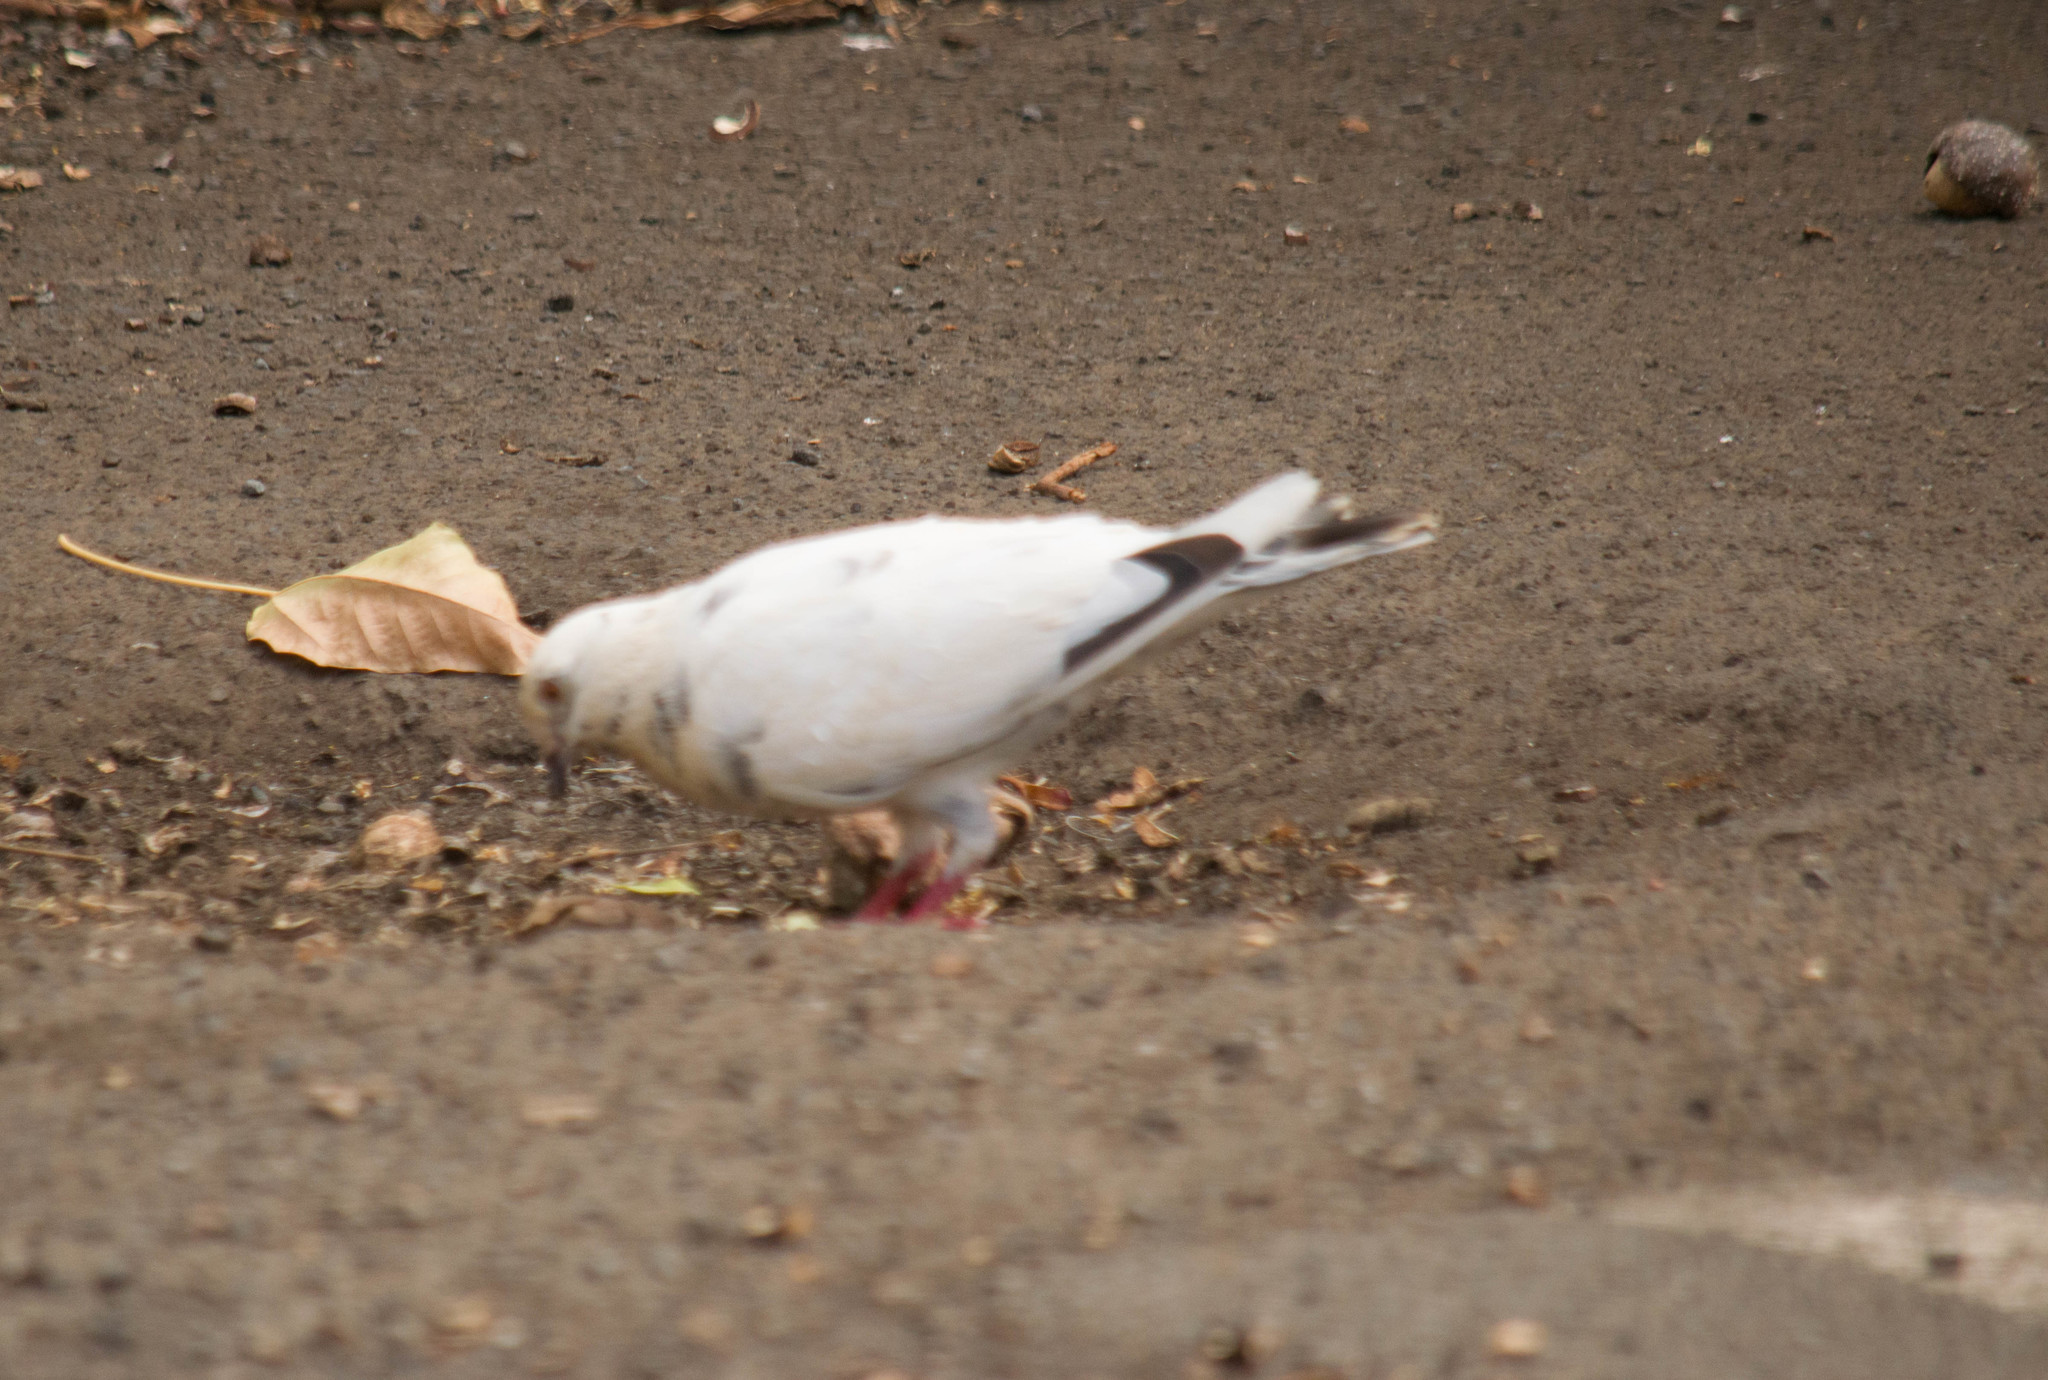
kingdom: Animalia
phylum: Chordata
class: Aves
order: Columbiformes
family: Columbidae
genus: Columba
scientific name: Columba livia
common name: Rock pigeon
